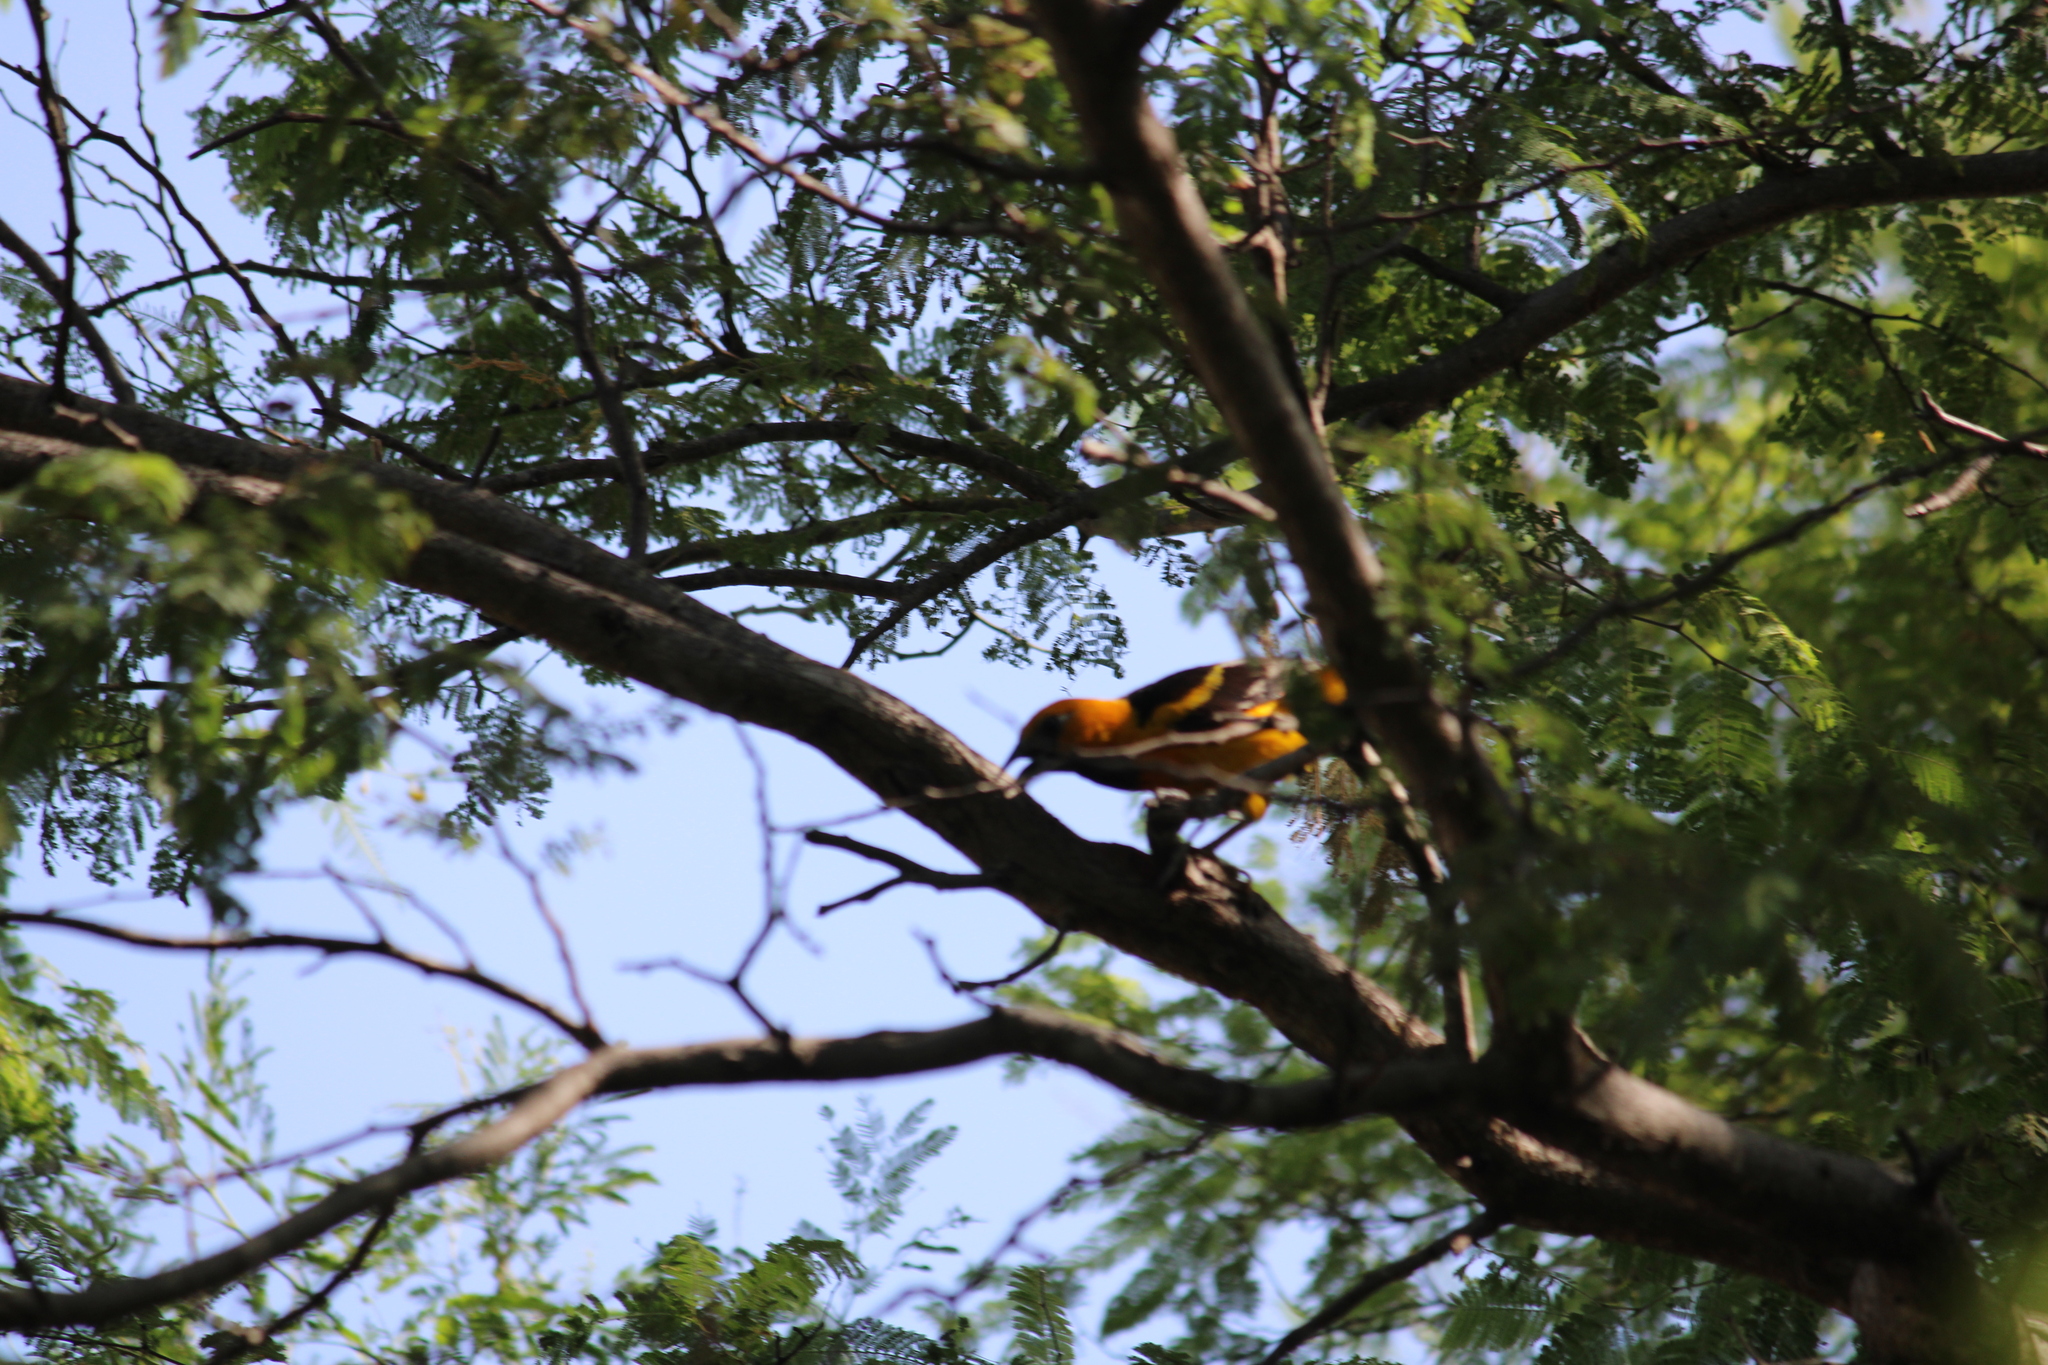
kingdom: Animalia
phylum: Chordata
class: Aves
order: Passeriformes
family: Icteridae
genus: Icterus
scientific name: Icterus gularis
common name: Altamira oriole
